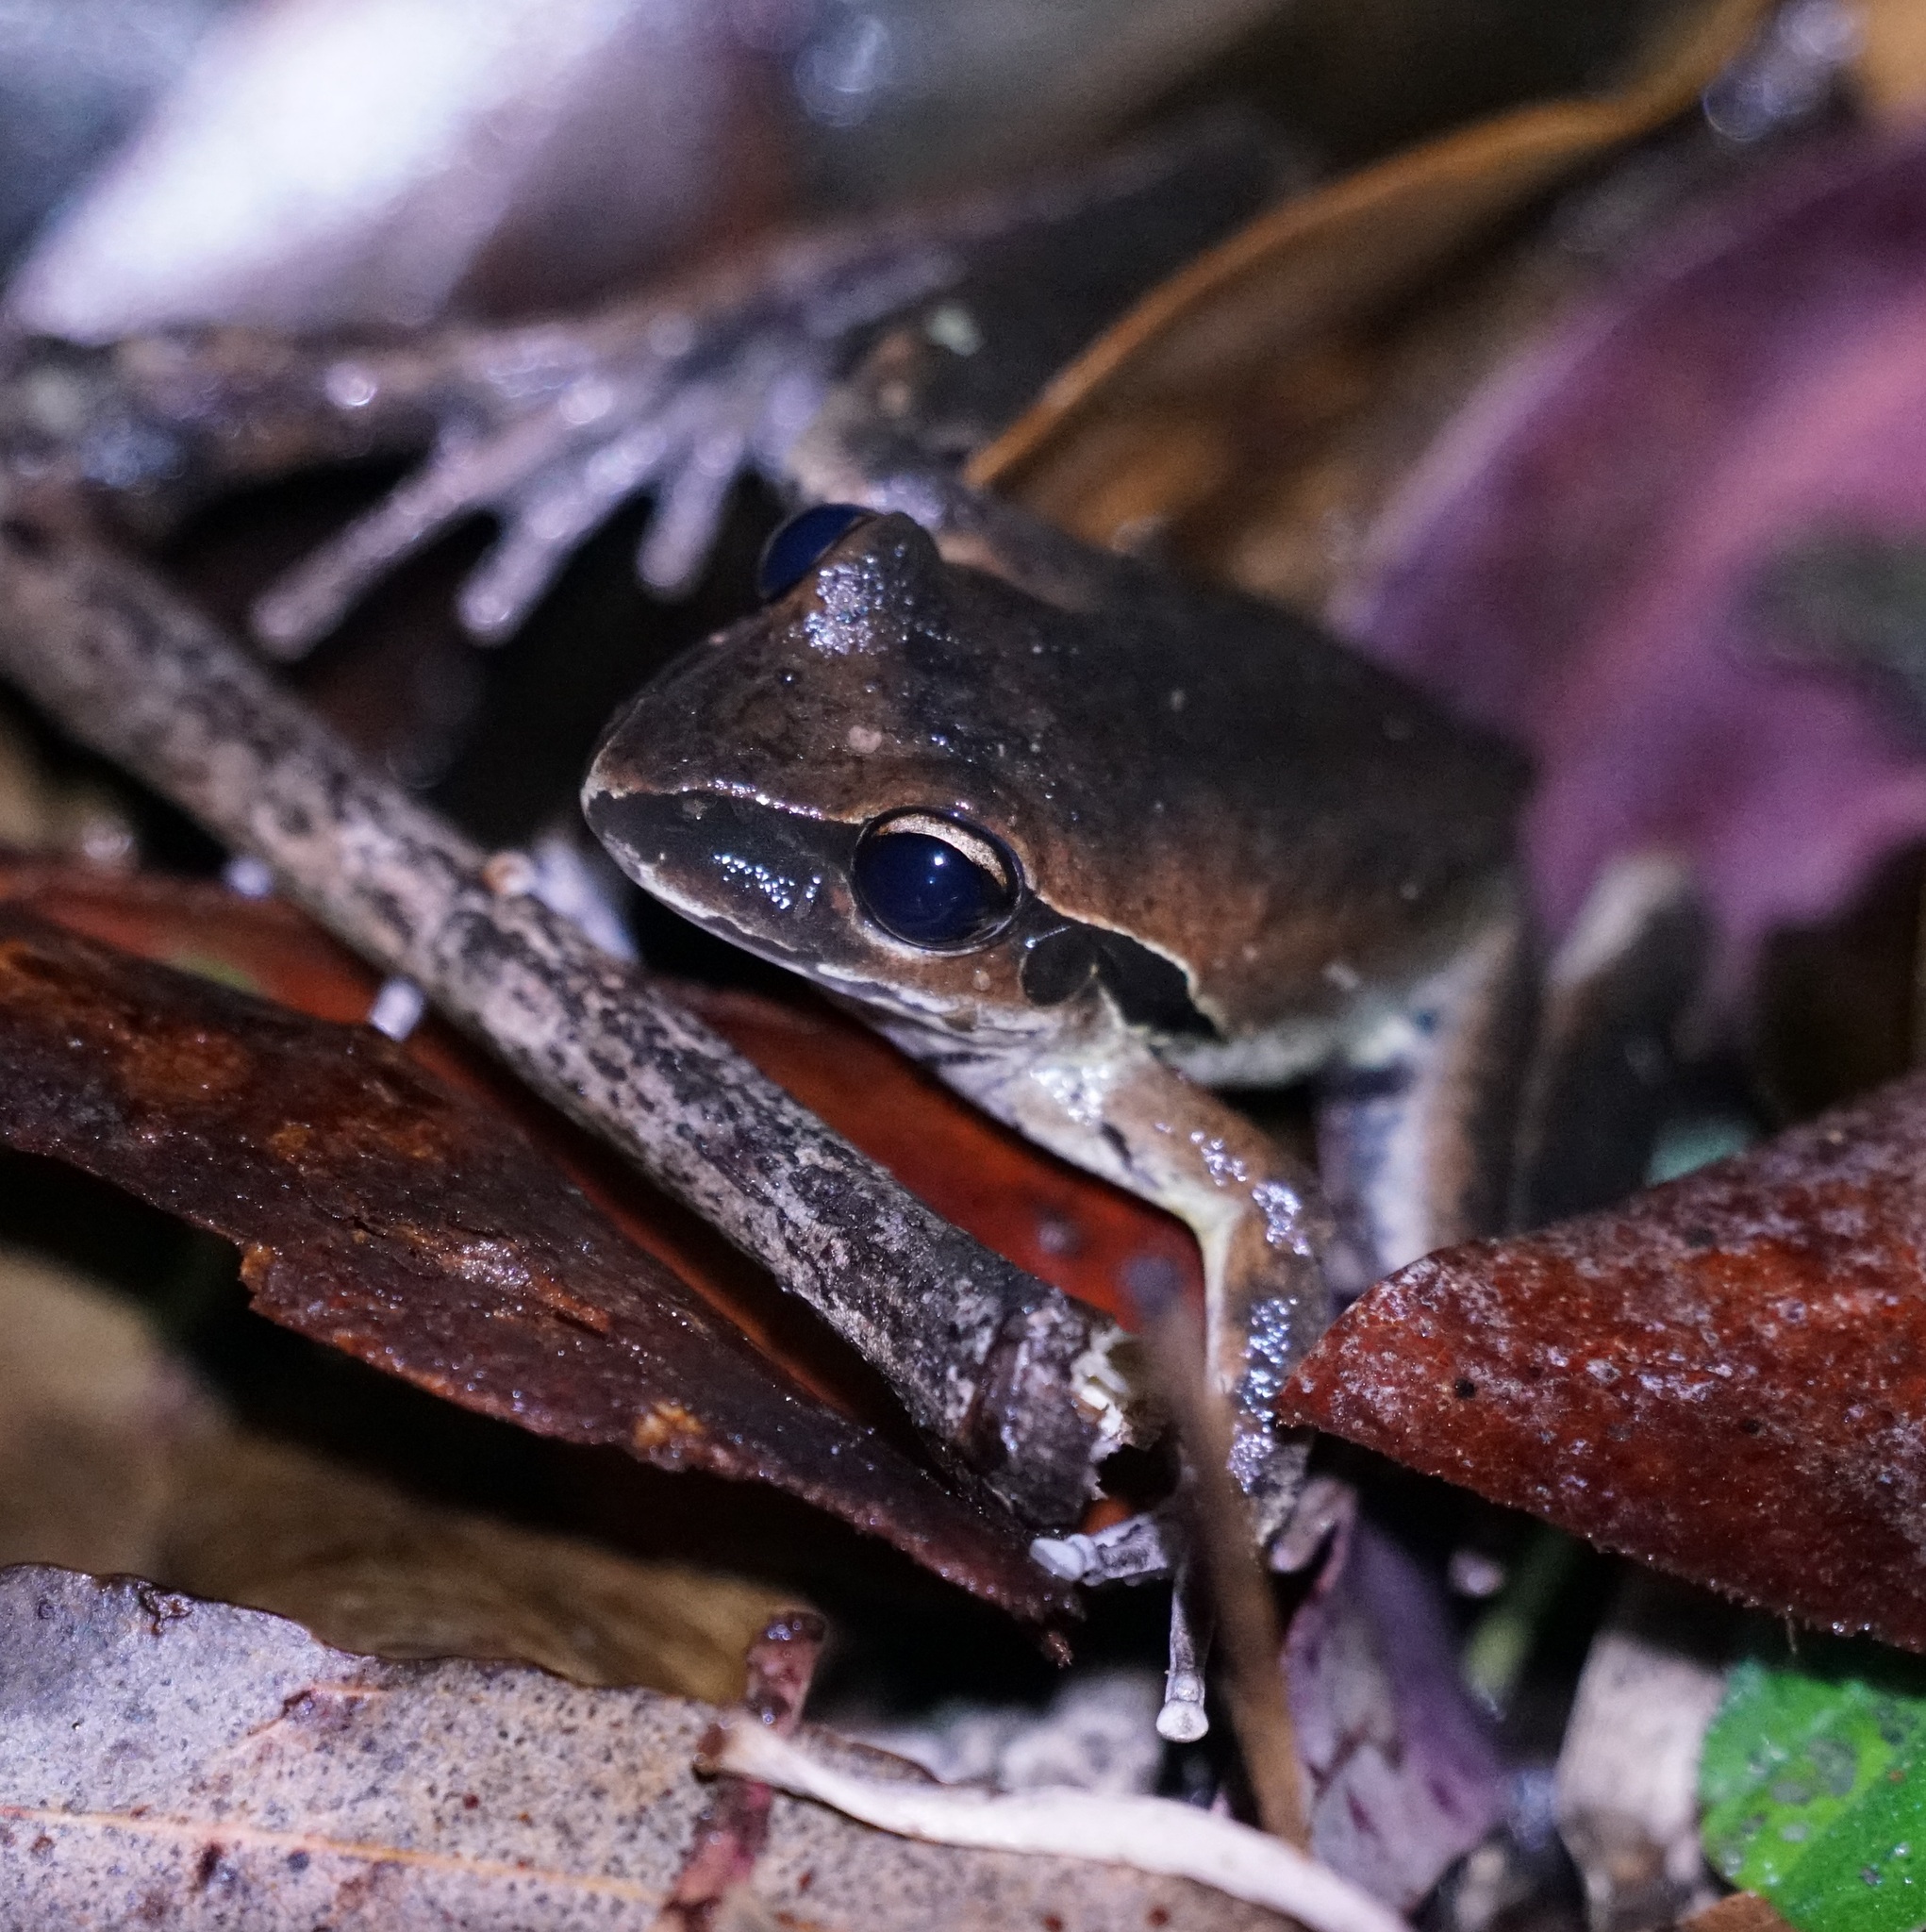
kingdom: Animalia
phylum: Chordata
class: Amphibia
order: Anura
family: Pelodryadidae
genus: Ranoidea
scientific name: Ranoidea wilcoxii
